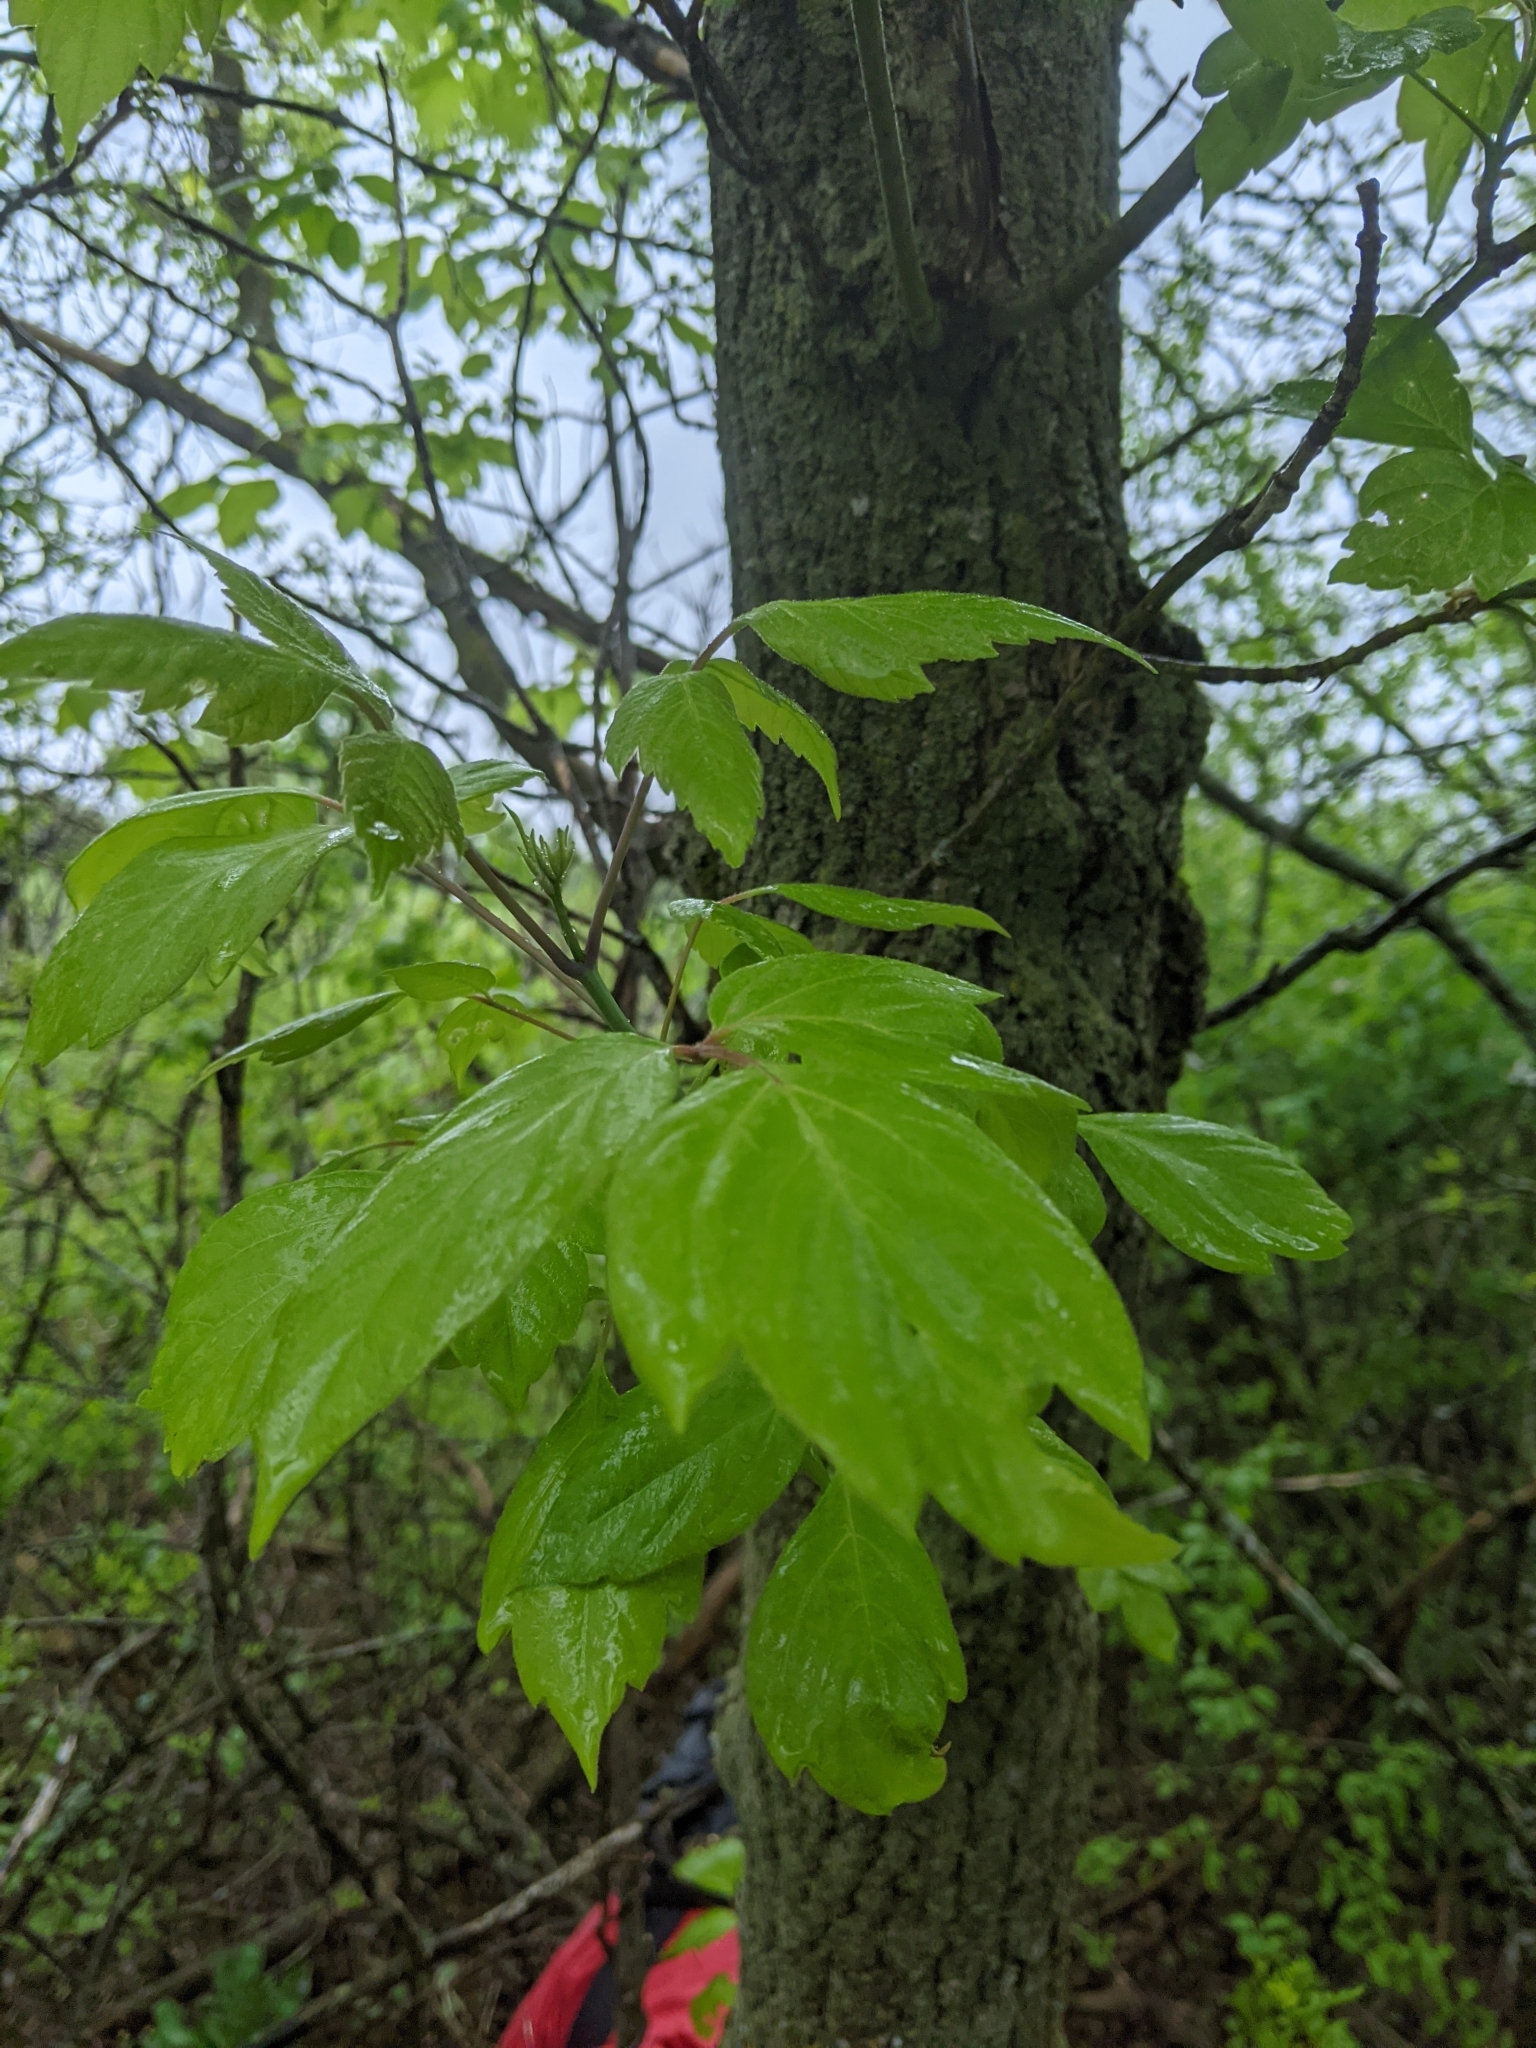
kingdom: Plantae
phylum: Tracheophyta
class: Magnoliopsida
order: Sapindales
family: Sapindaceae
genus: Acer
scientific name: Acer negundo
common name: Ashleaf maple
